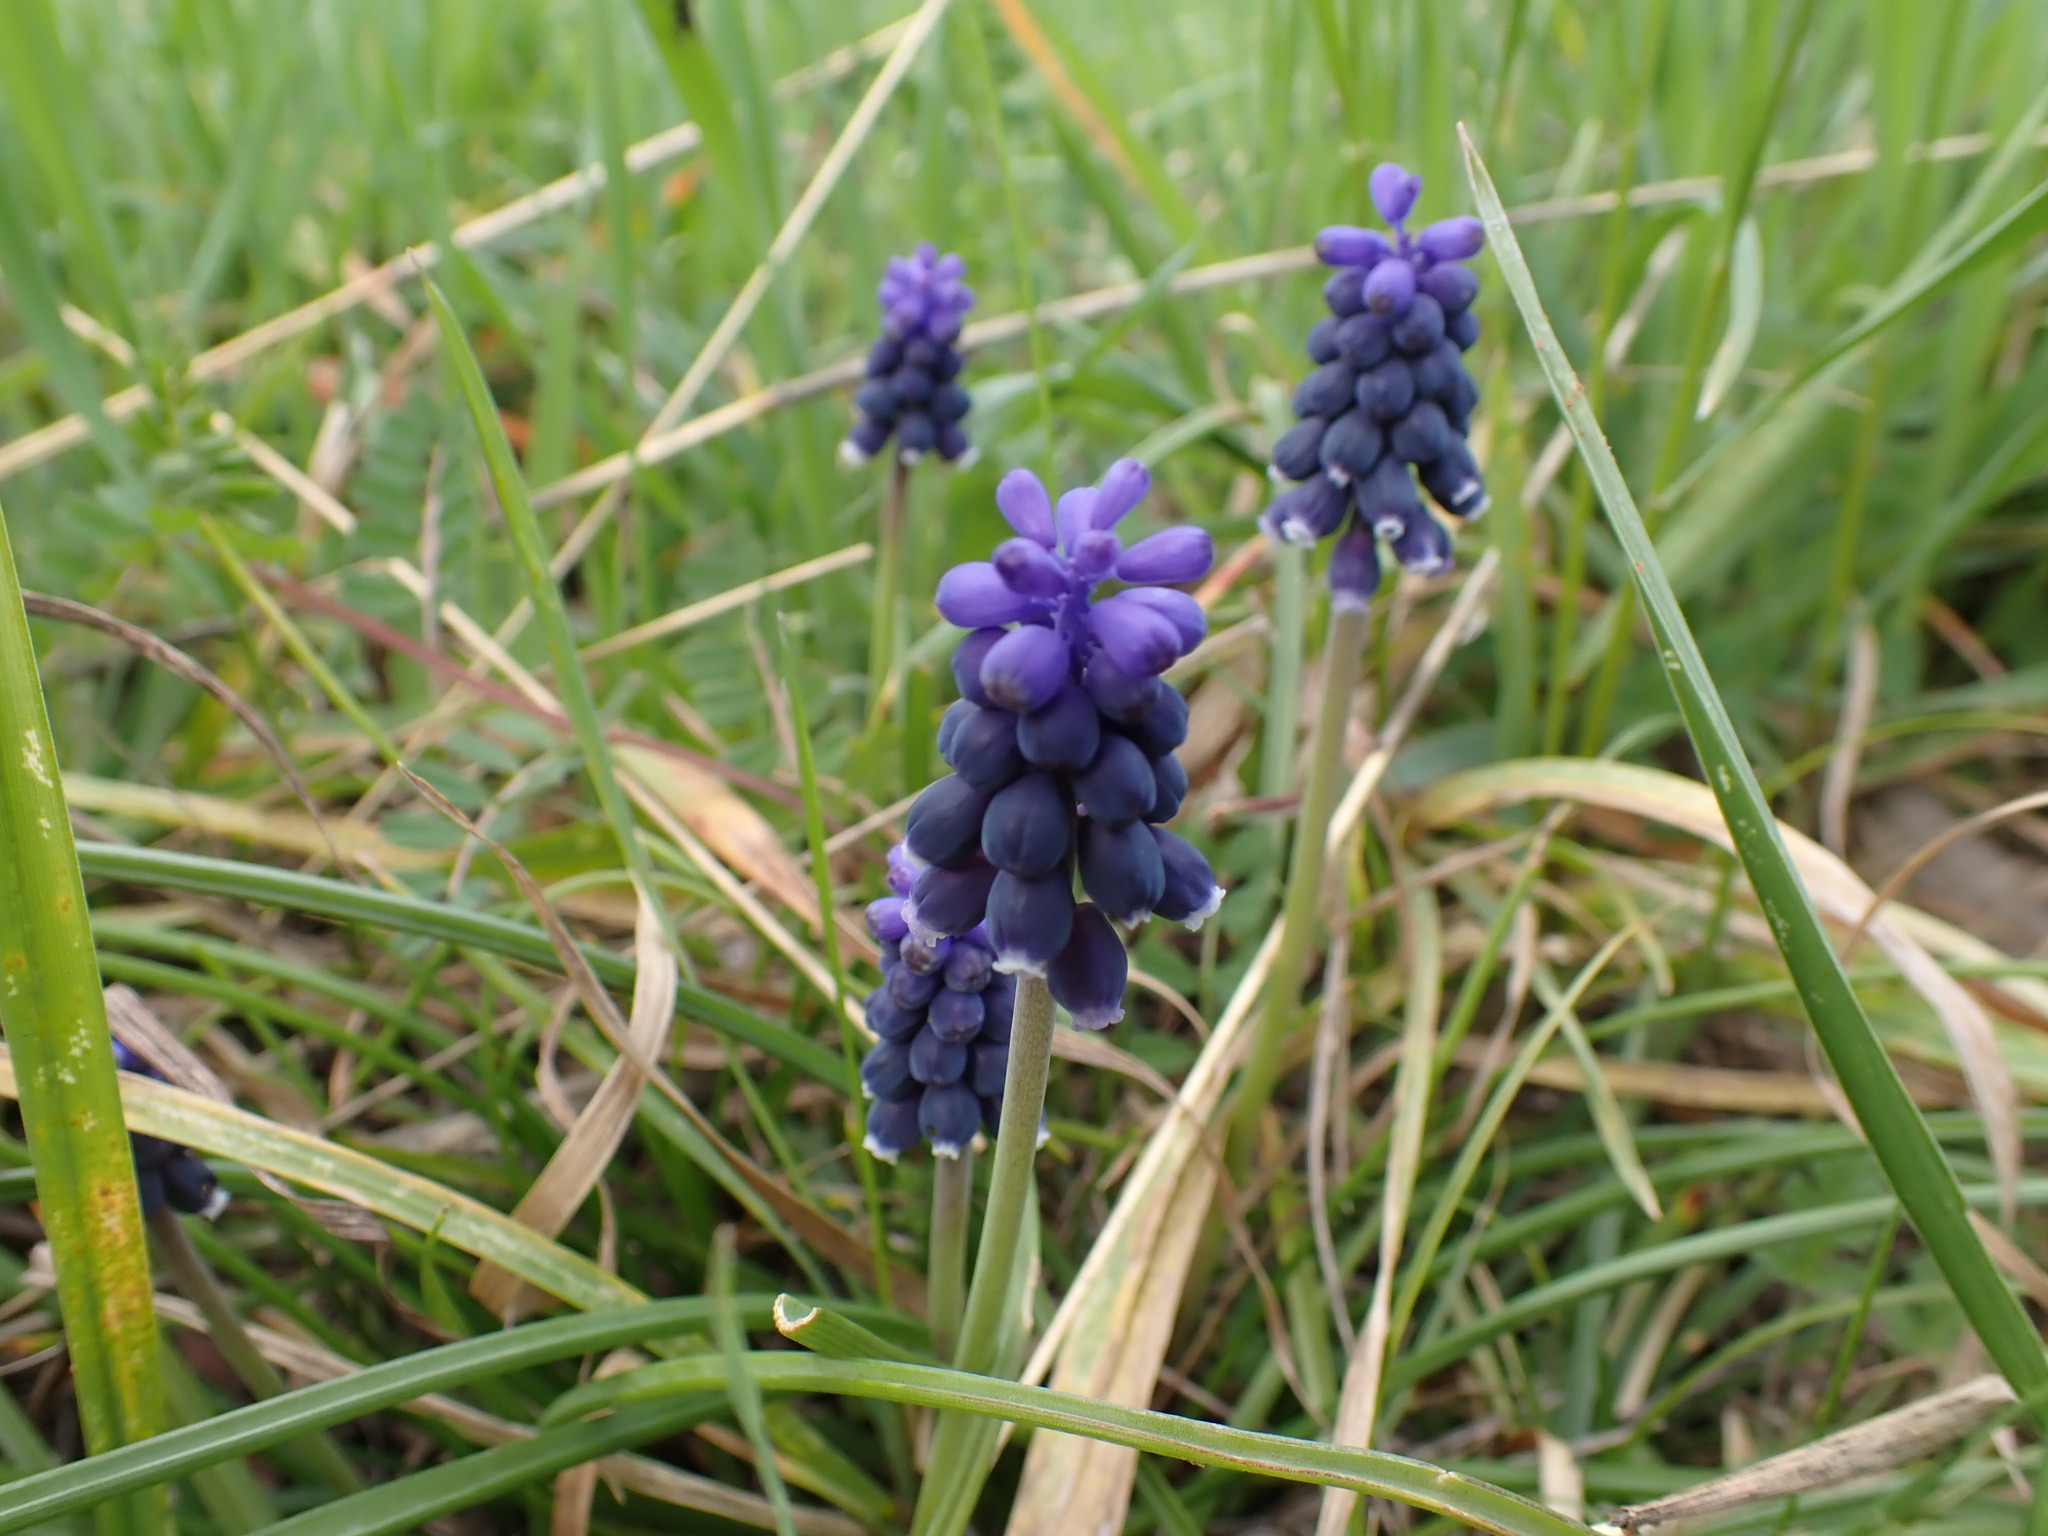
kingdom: Plantae
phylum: Tracheophyta
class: Liliopsida
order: Asparagales
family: Asparagaceae
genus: Muscari
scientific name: Muscari neglectum
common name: Grape-hyacinth
